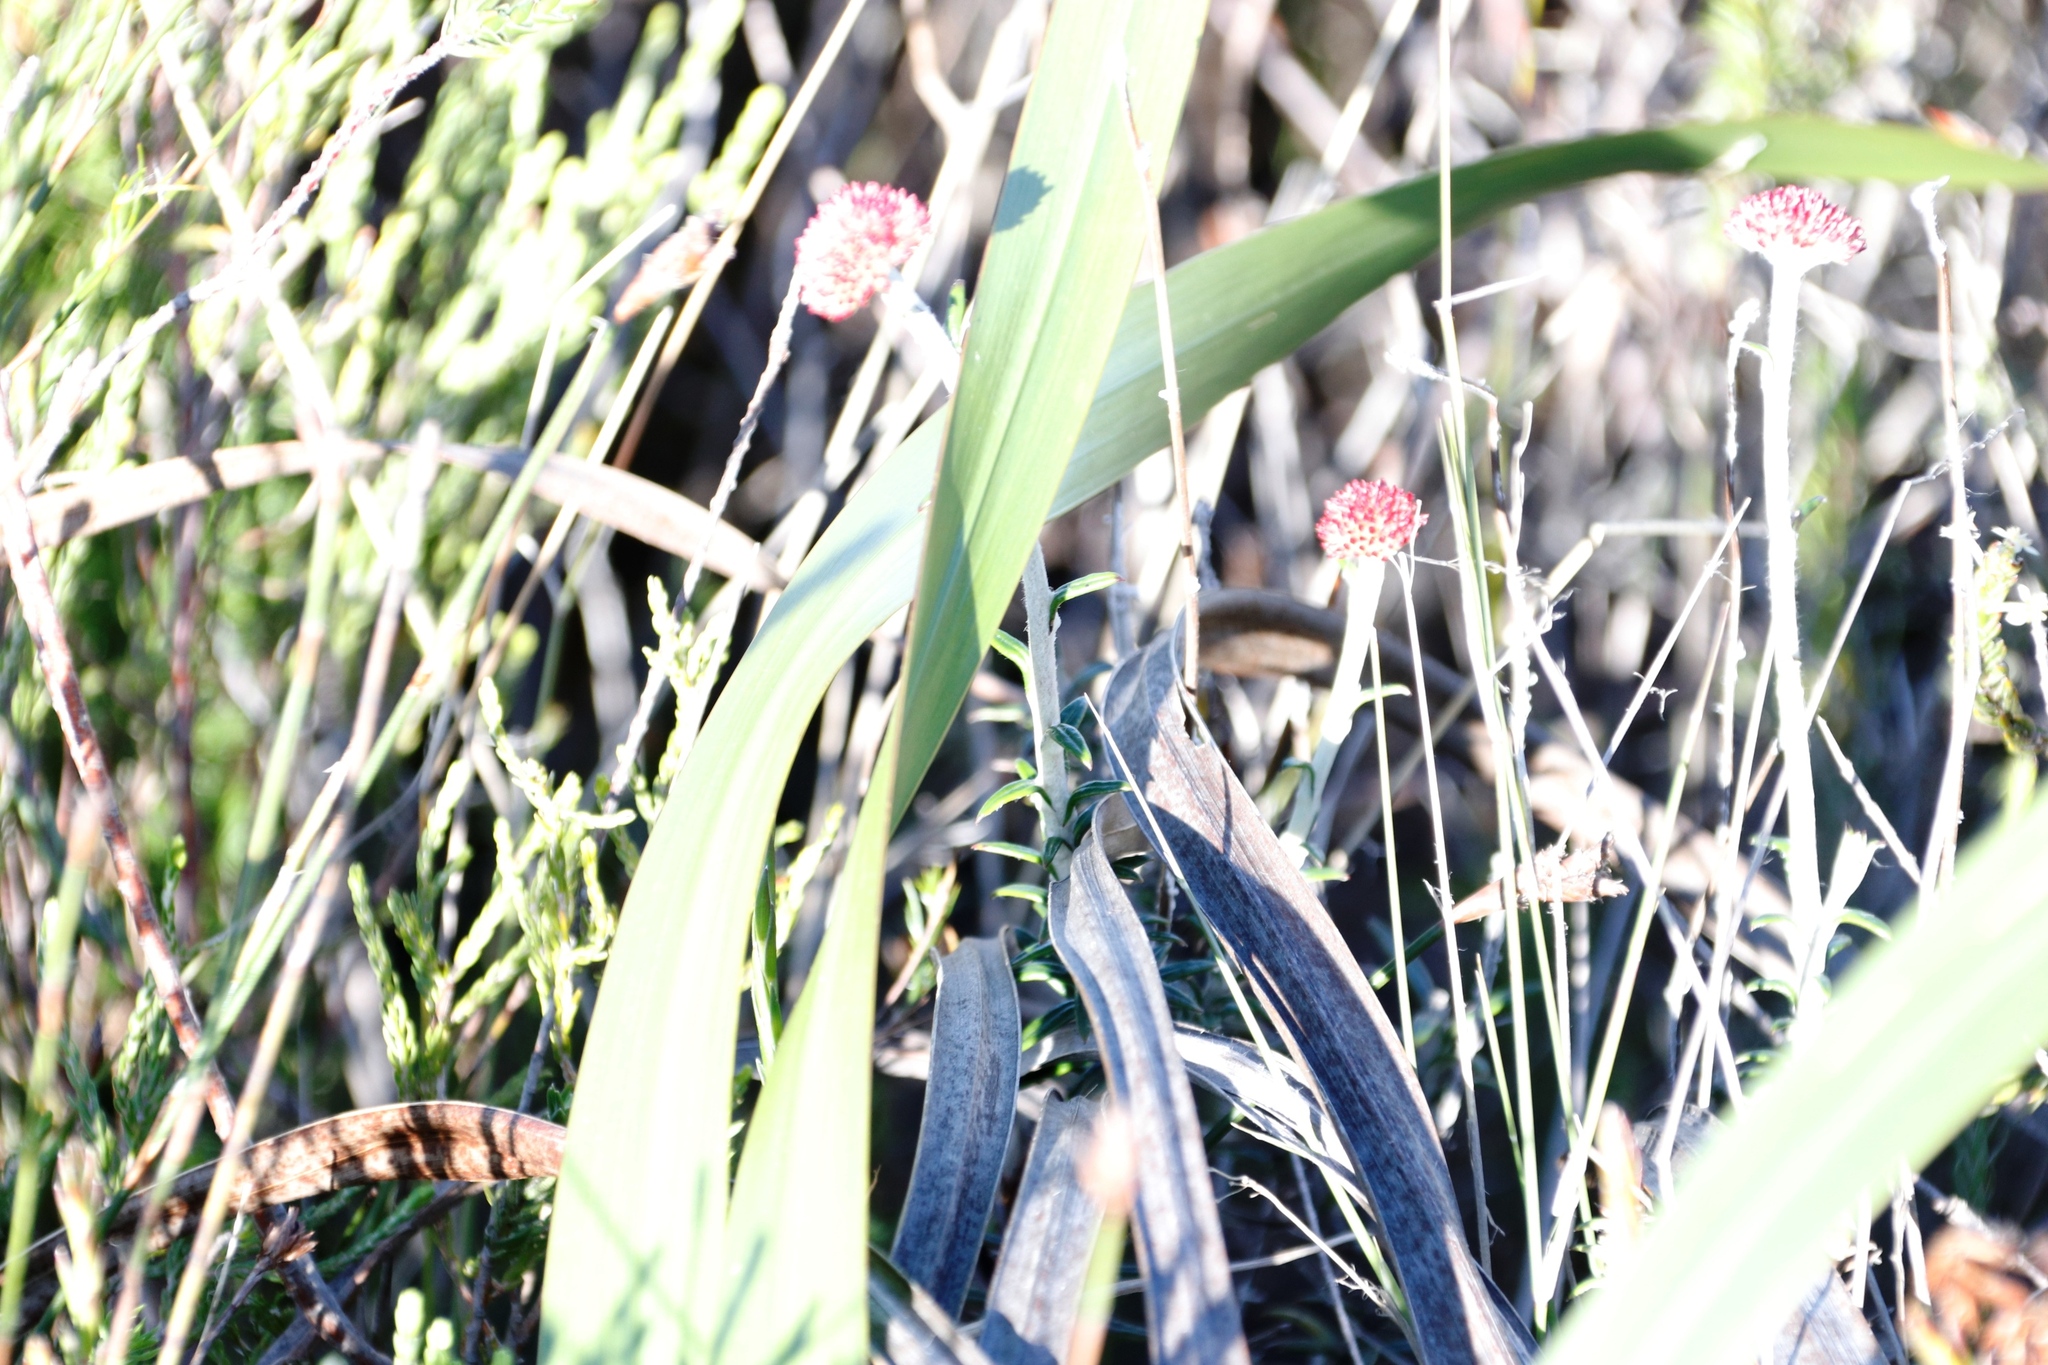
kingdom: Plantae
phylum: Tracheophyta
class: Magnoliopsida
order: Asterales
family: Asteraceae
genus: Anaxeton
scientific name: Anaxeton arborescens
